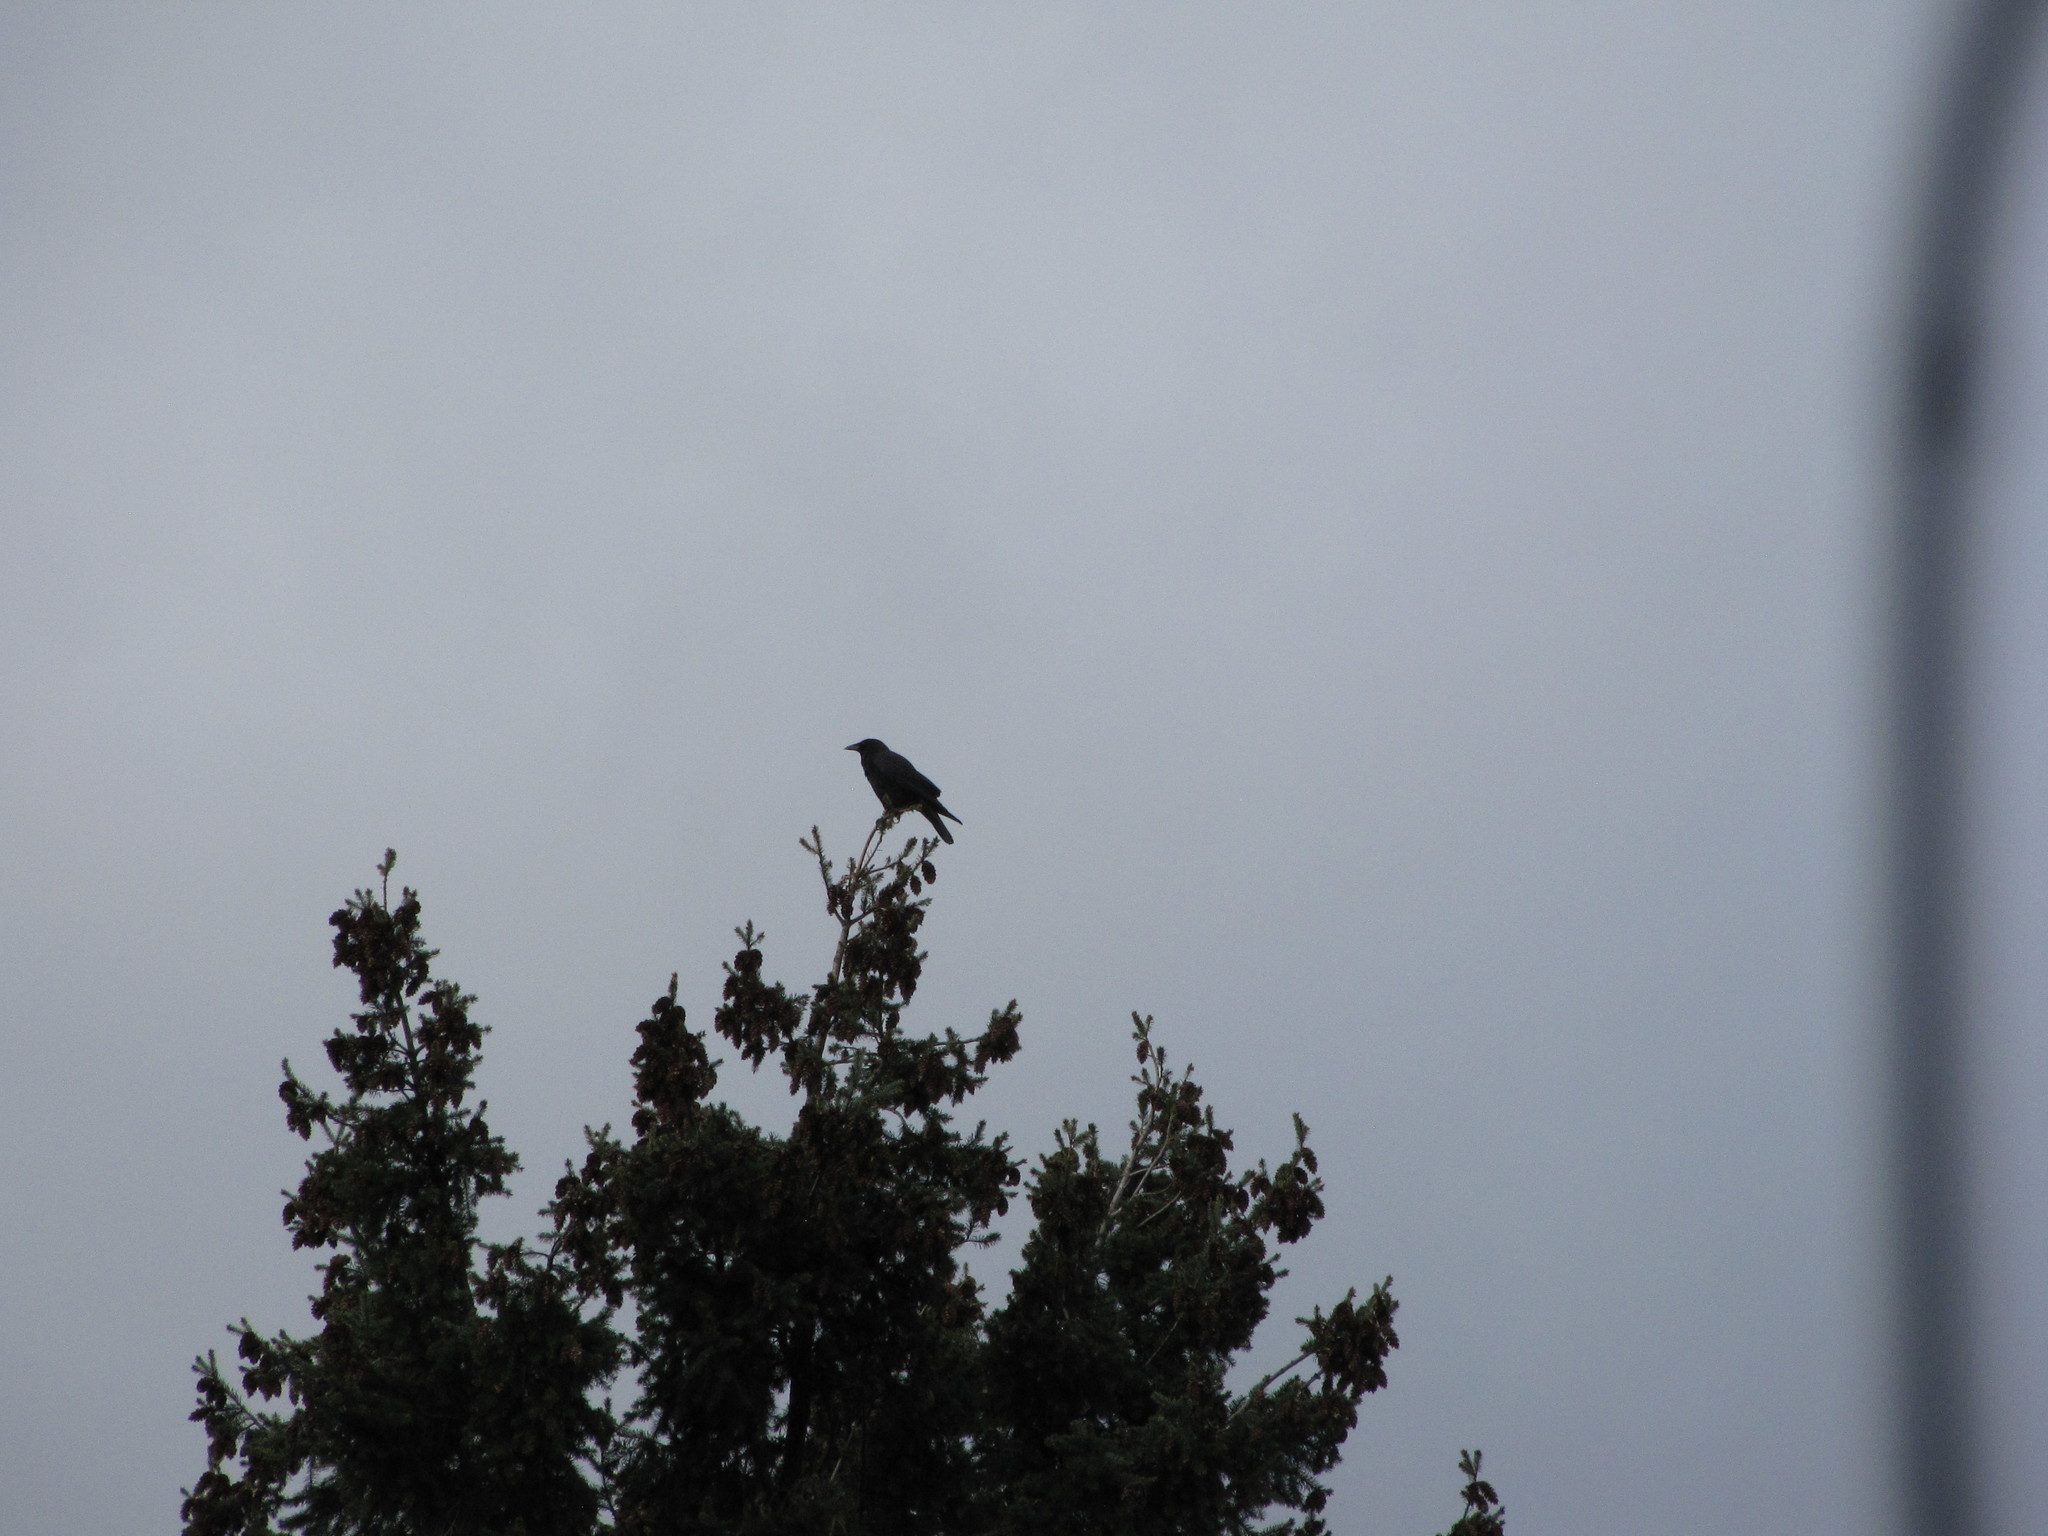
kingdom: Animalia
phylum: Chordata
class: Aves
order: Passeriformes
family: Corvidae
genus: Corvus
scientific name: Corvus brachyrhynchos
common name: American crow
